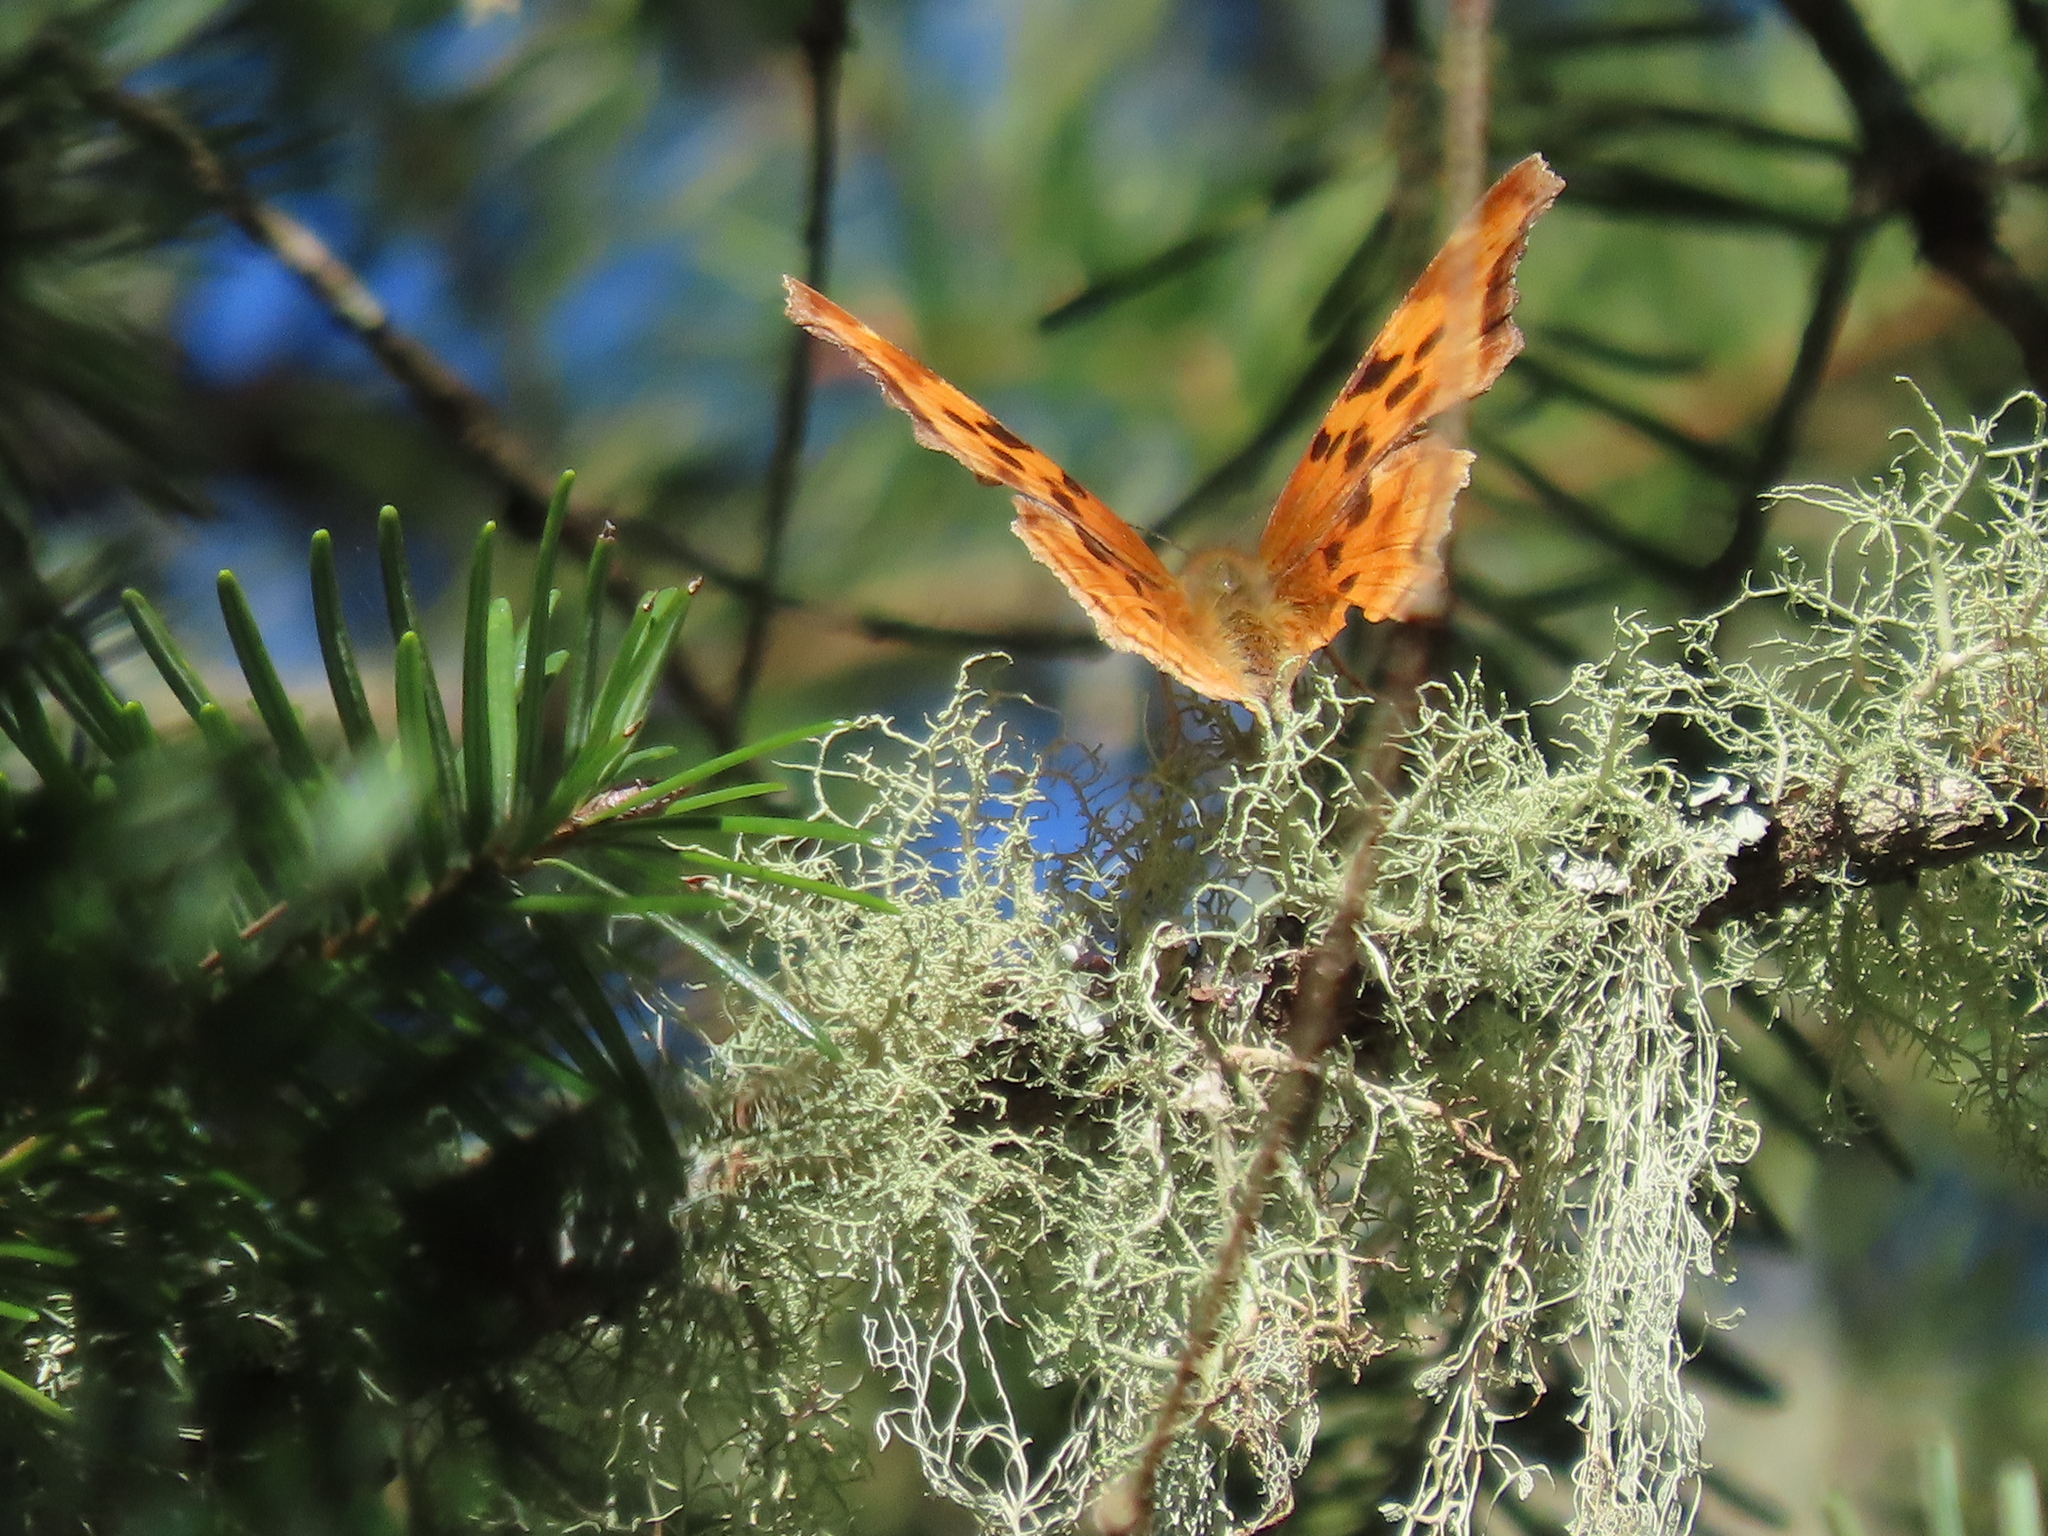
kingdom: Animalia
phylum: Arthropoda
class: Insecta
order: Lepidoptera
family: Nymphalidae
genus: Polygonia
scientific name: Polygonia satyrus
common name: Satyr angle wing
